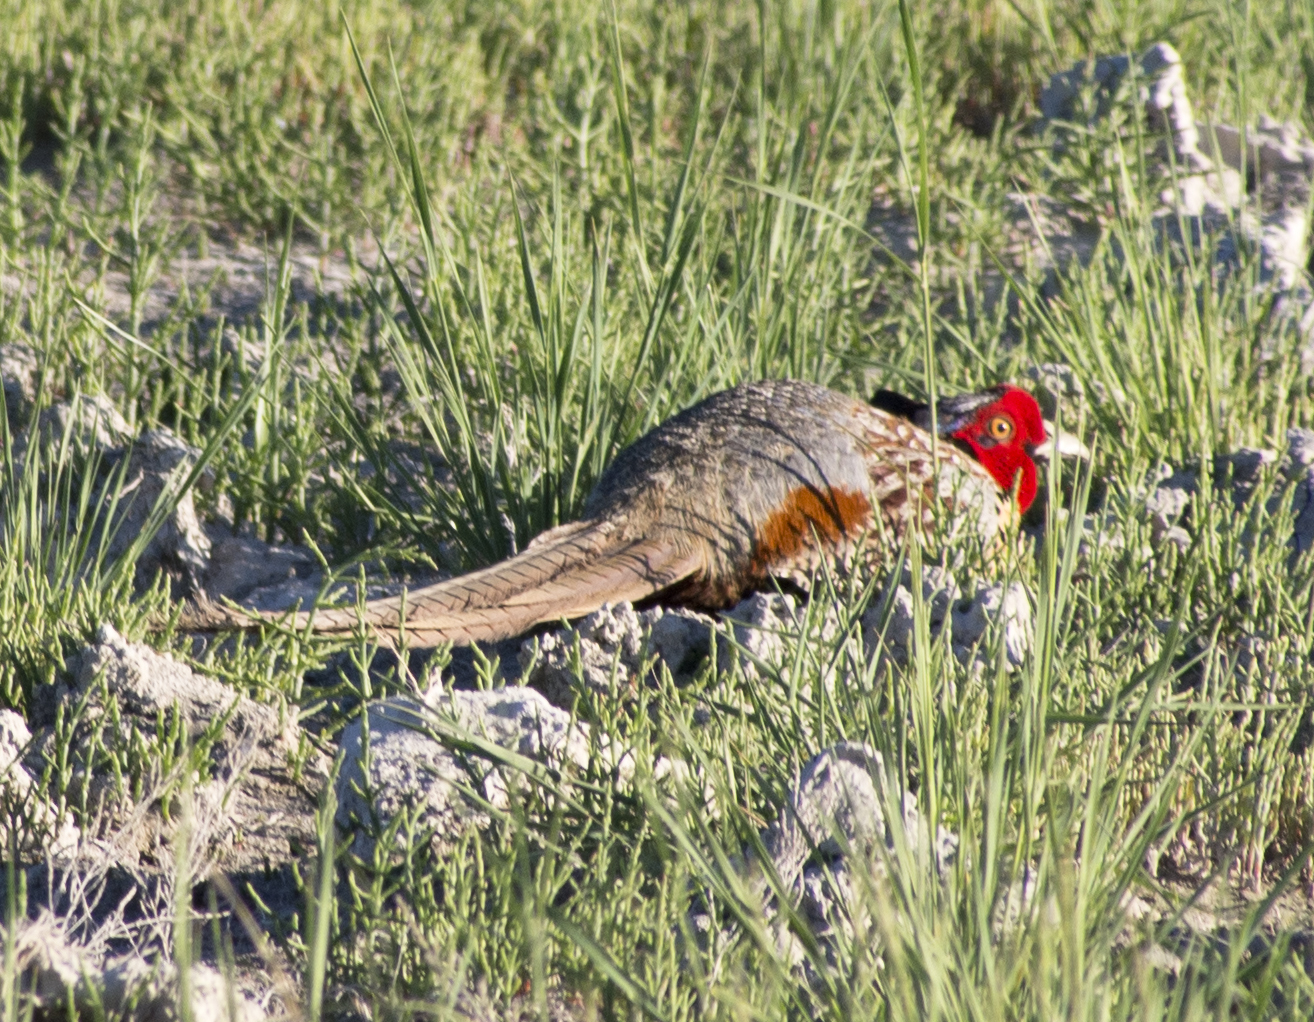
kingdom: Animalia
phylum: Chordata
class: Aves
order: Galliformes
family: Phasianidae
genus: Phasianus
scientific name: Phasianus colchicus
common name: Common pheasant
